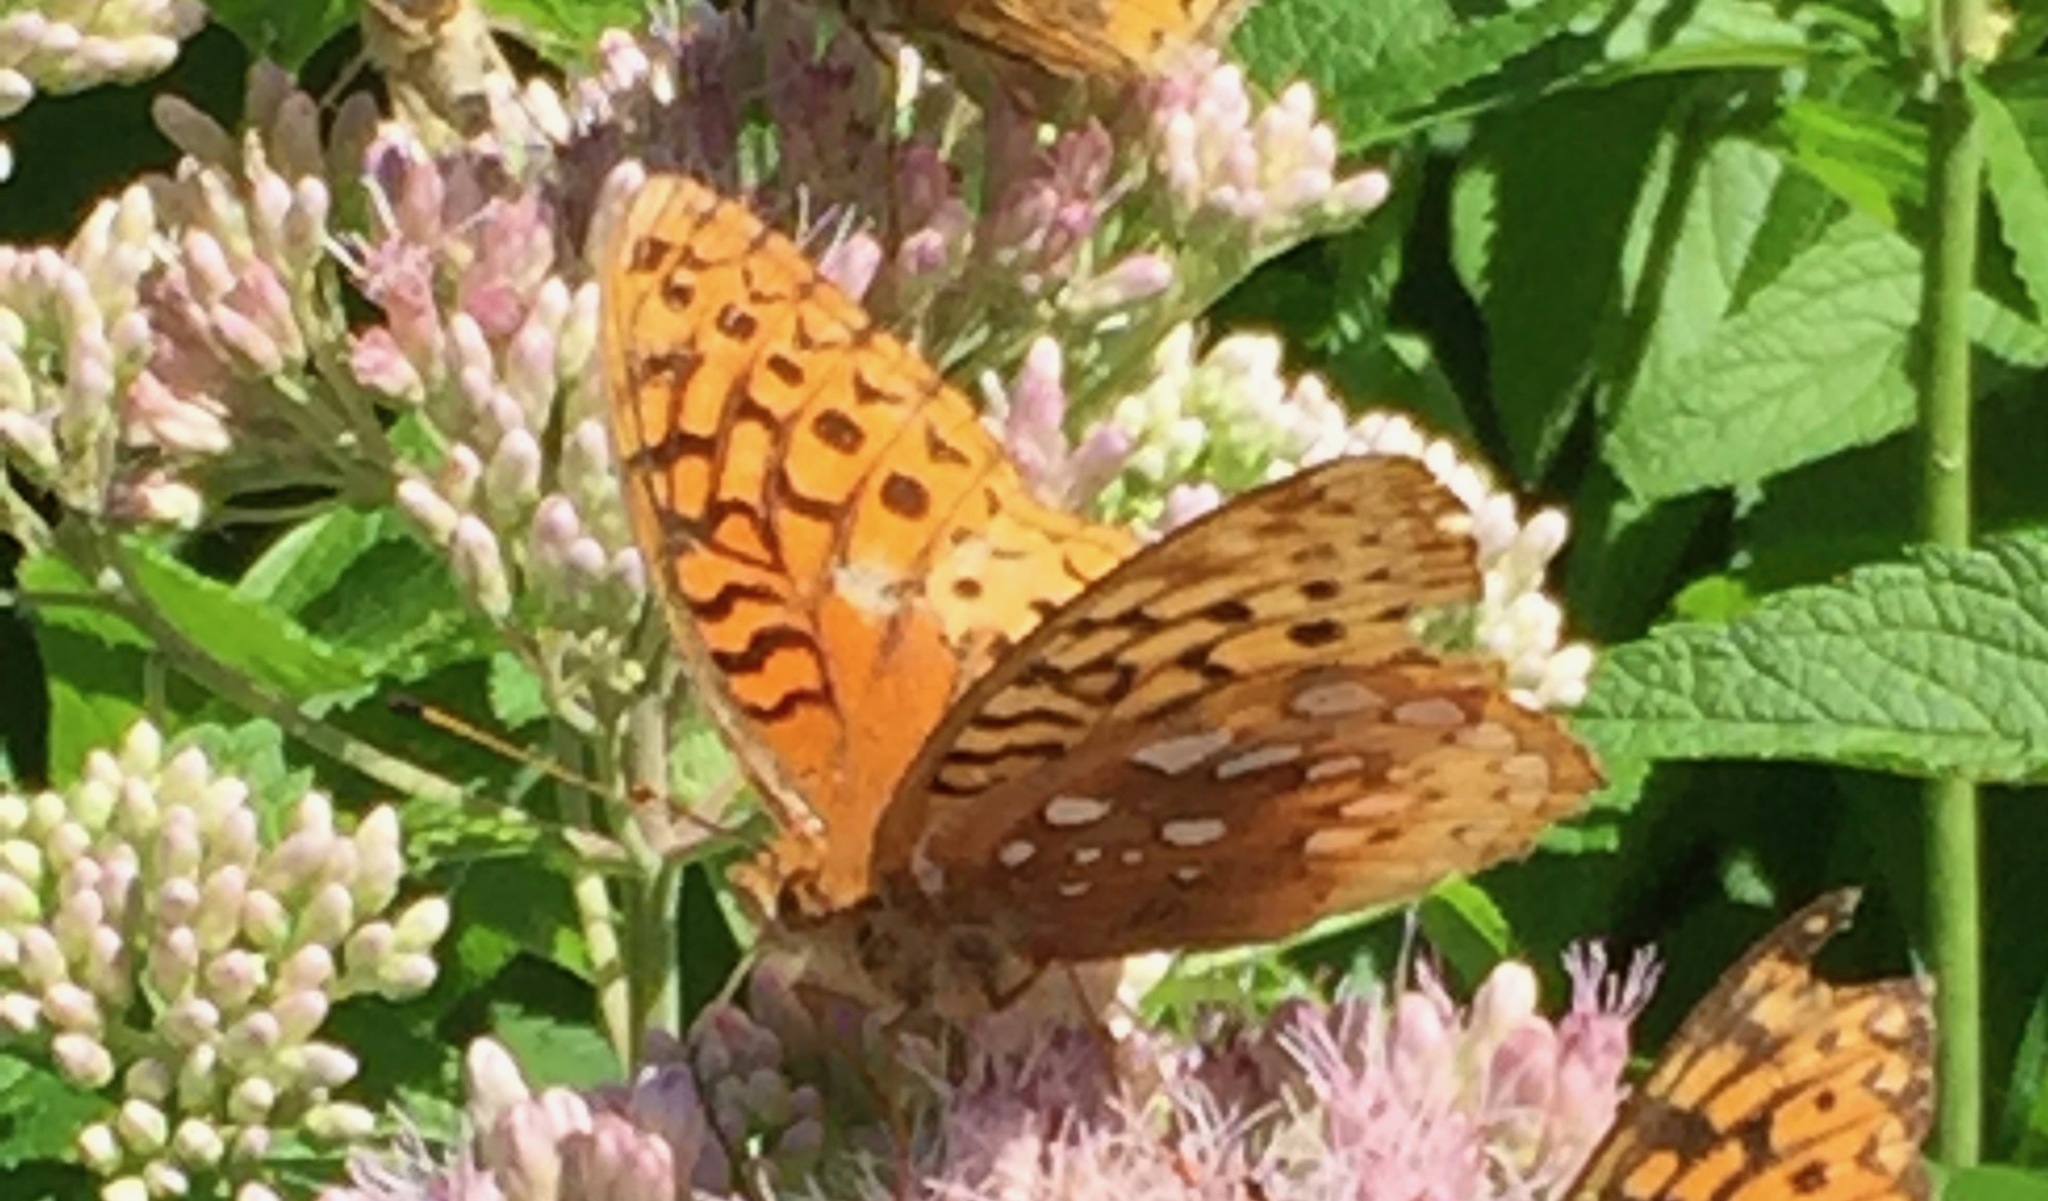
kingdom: Animalia
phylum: Arthropoda
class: Insecta
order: Lepidoptera
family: Nymphalidae
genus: Speyeria
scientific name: Speyeria cybele
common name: Great spangled fritillary
